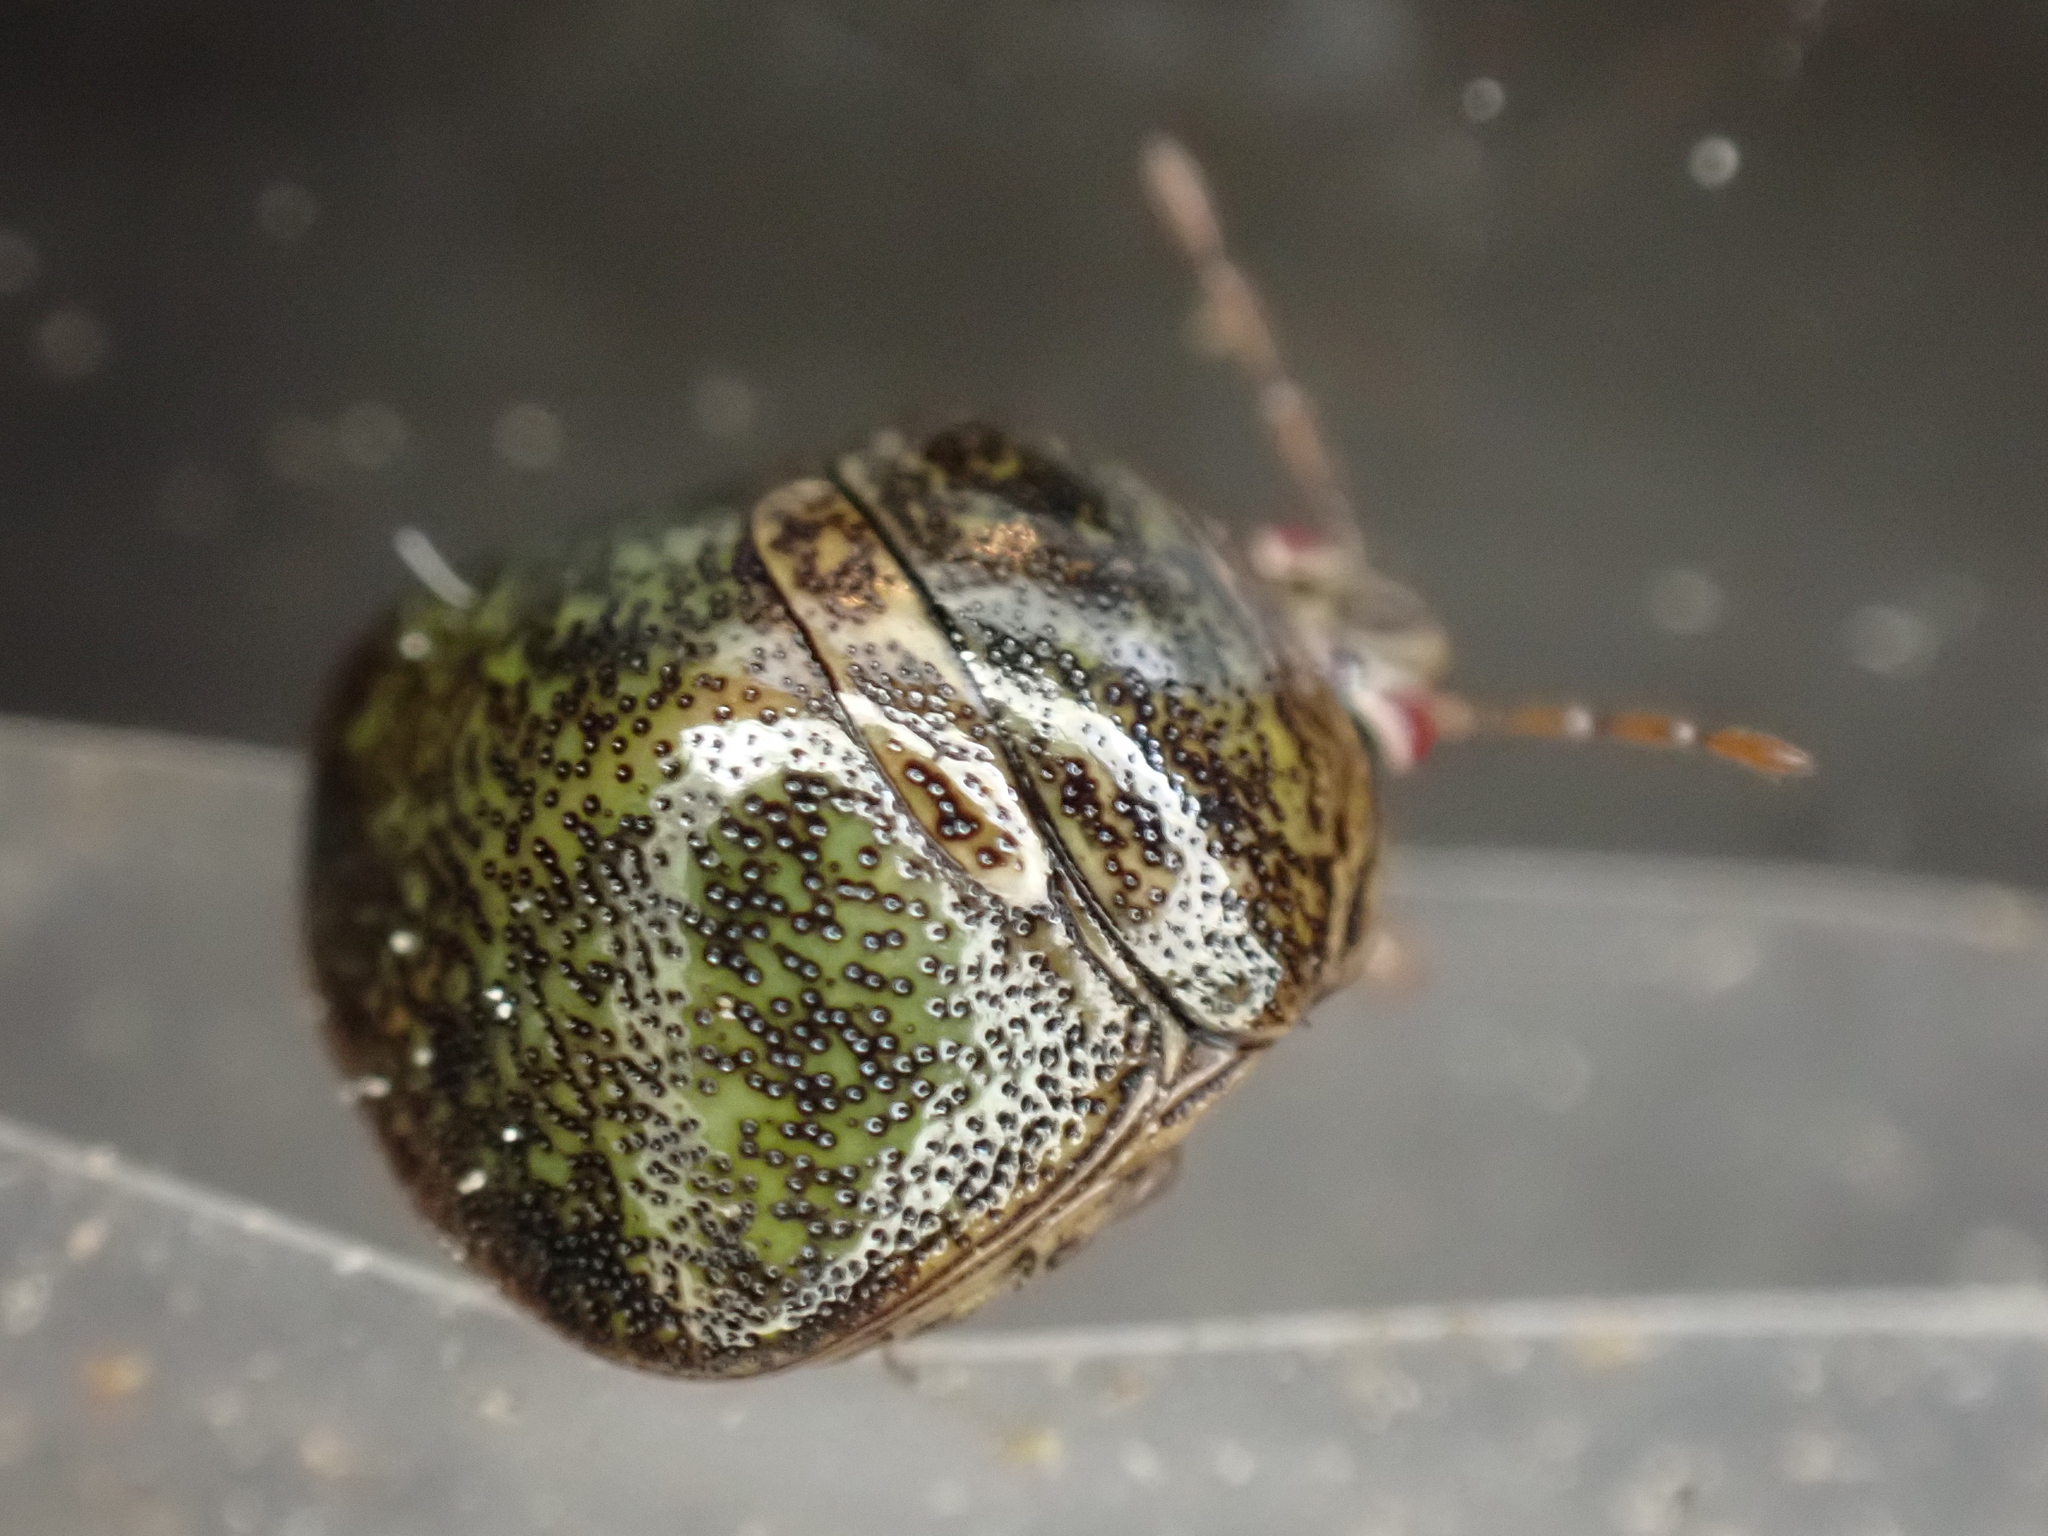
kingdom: Animalia
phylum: Arthropoda
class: Insecta
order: Hemiptera
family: Plataspidae
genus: Megacopta
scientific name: Megacopta cribraria
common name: Bean plataspid
